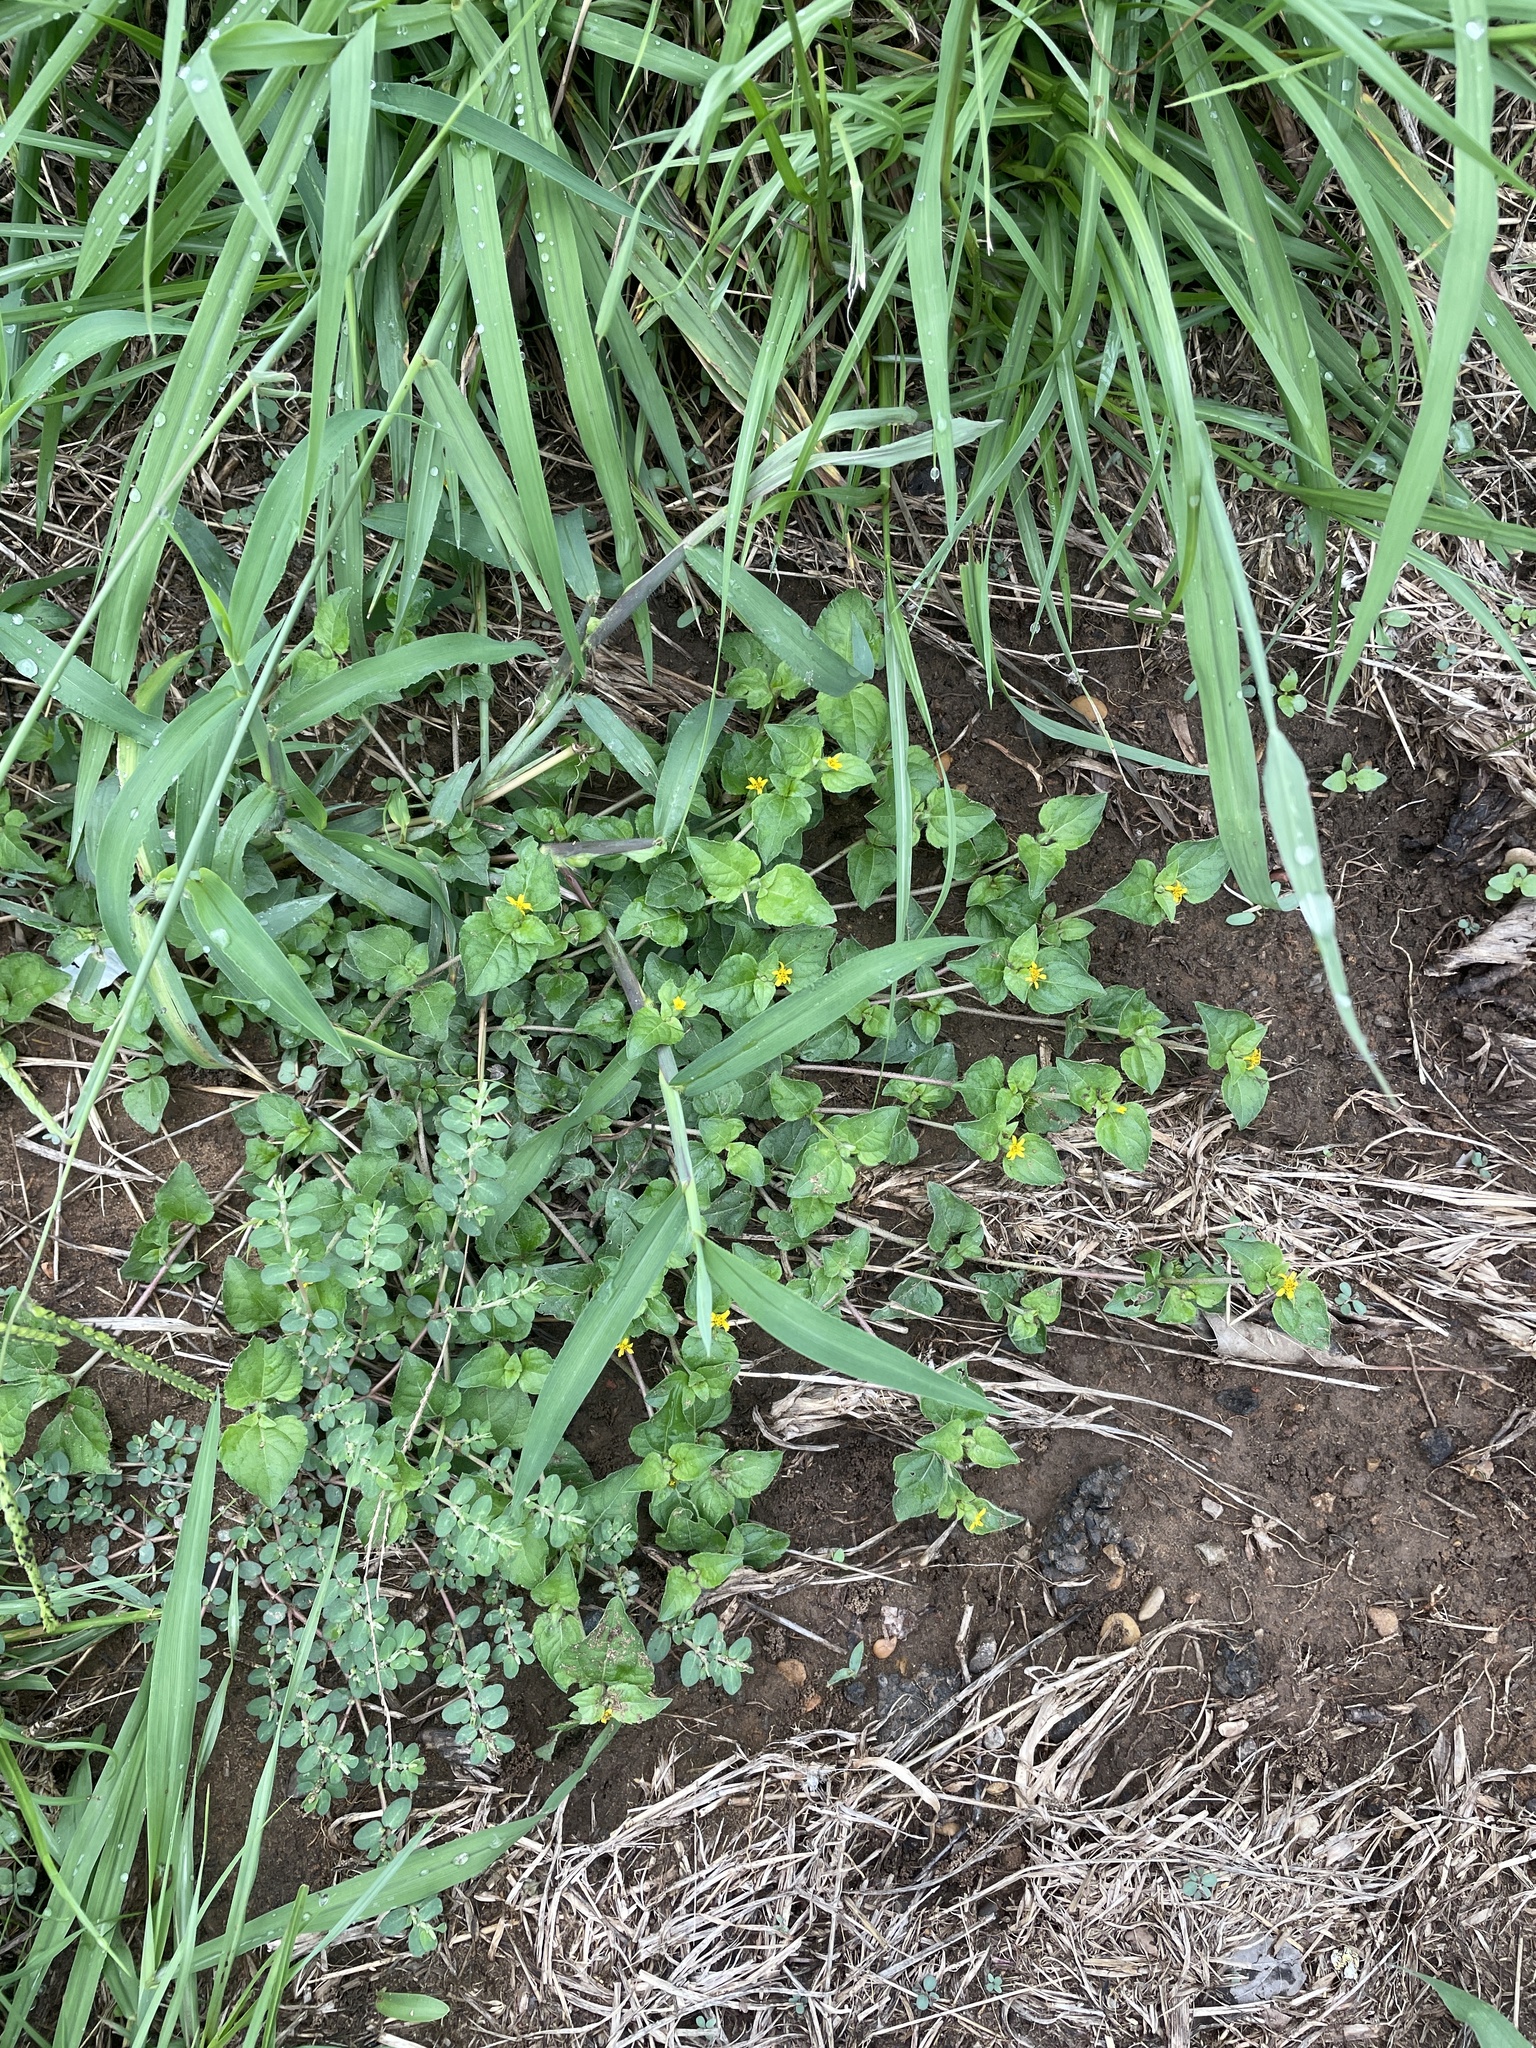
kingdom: Plantae
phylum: Tracheophyta
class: Magnoliopsida
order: Asterales
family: Asteraceae
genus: Calyptocarpus
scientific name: Calyptocarpus vialis
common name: Straggler daisy
